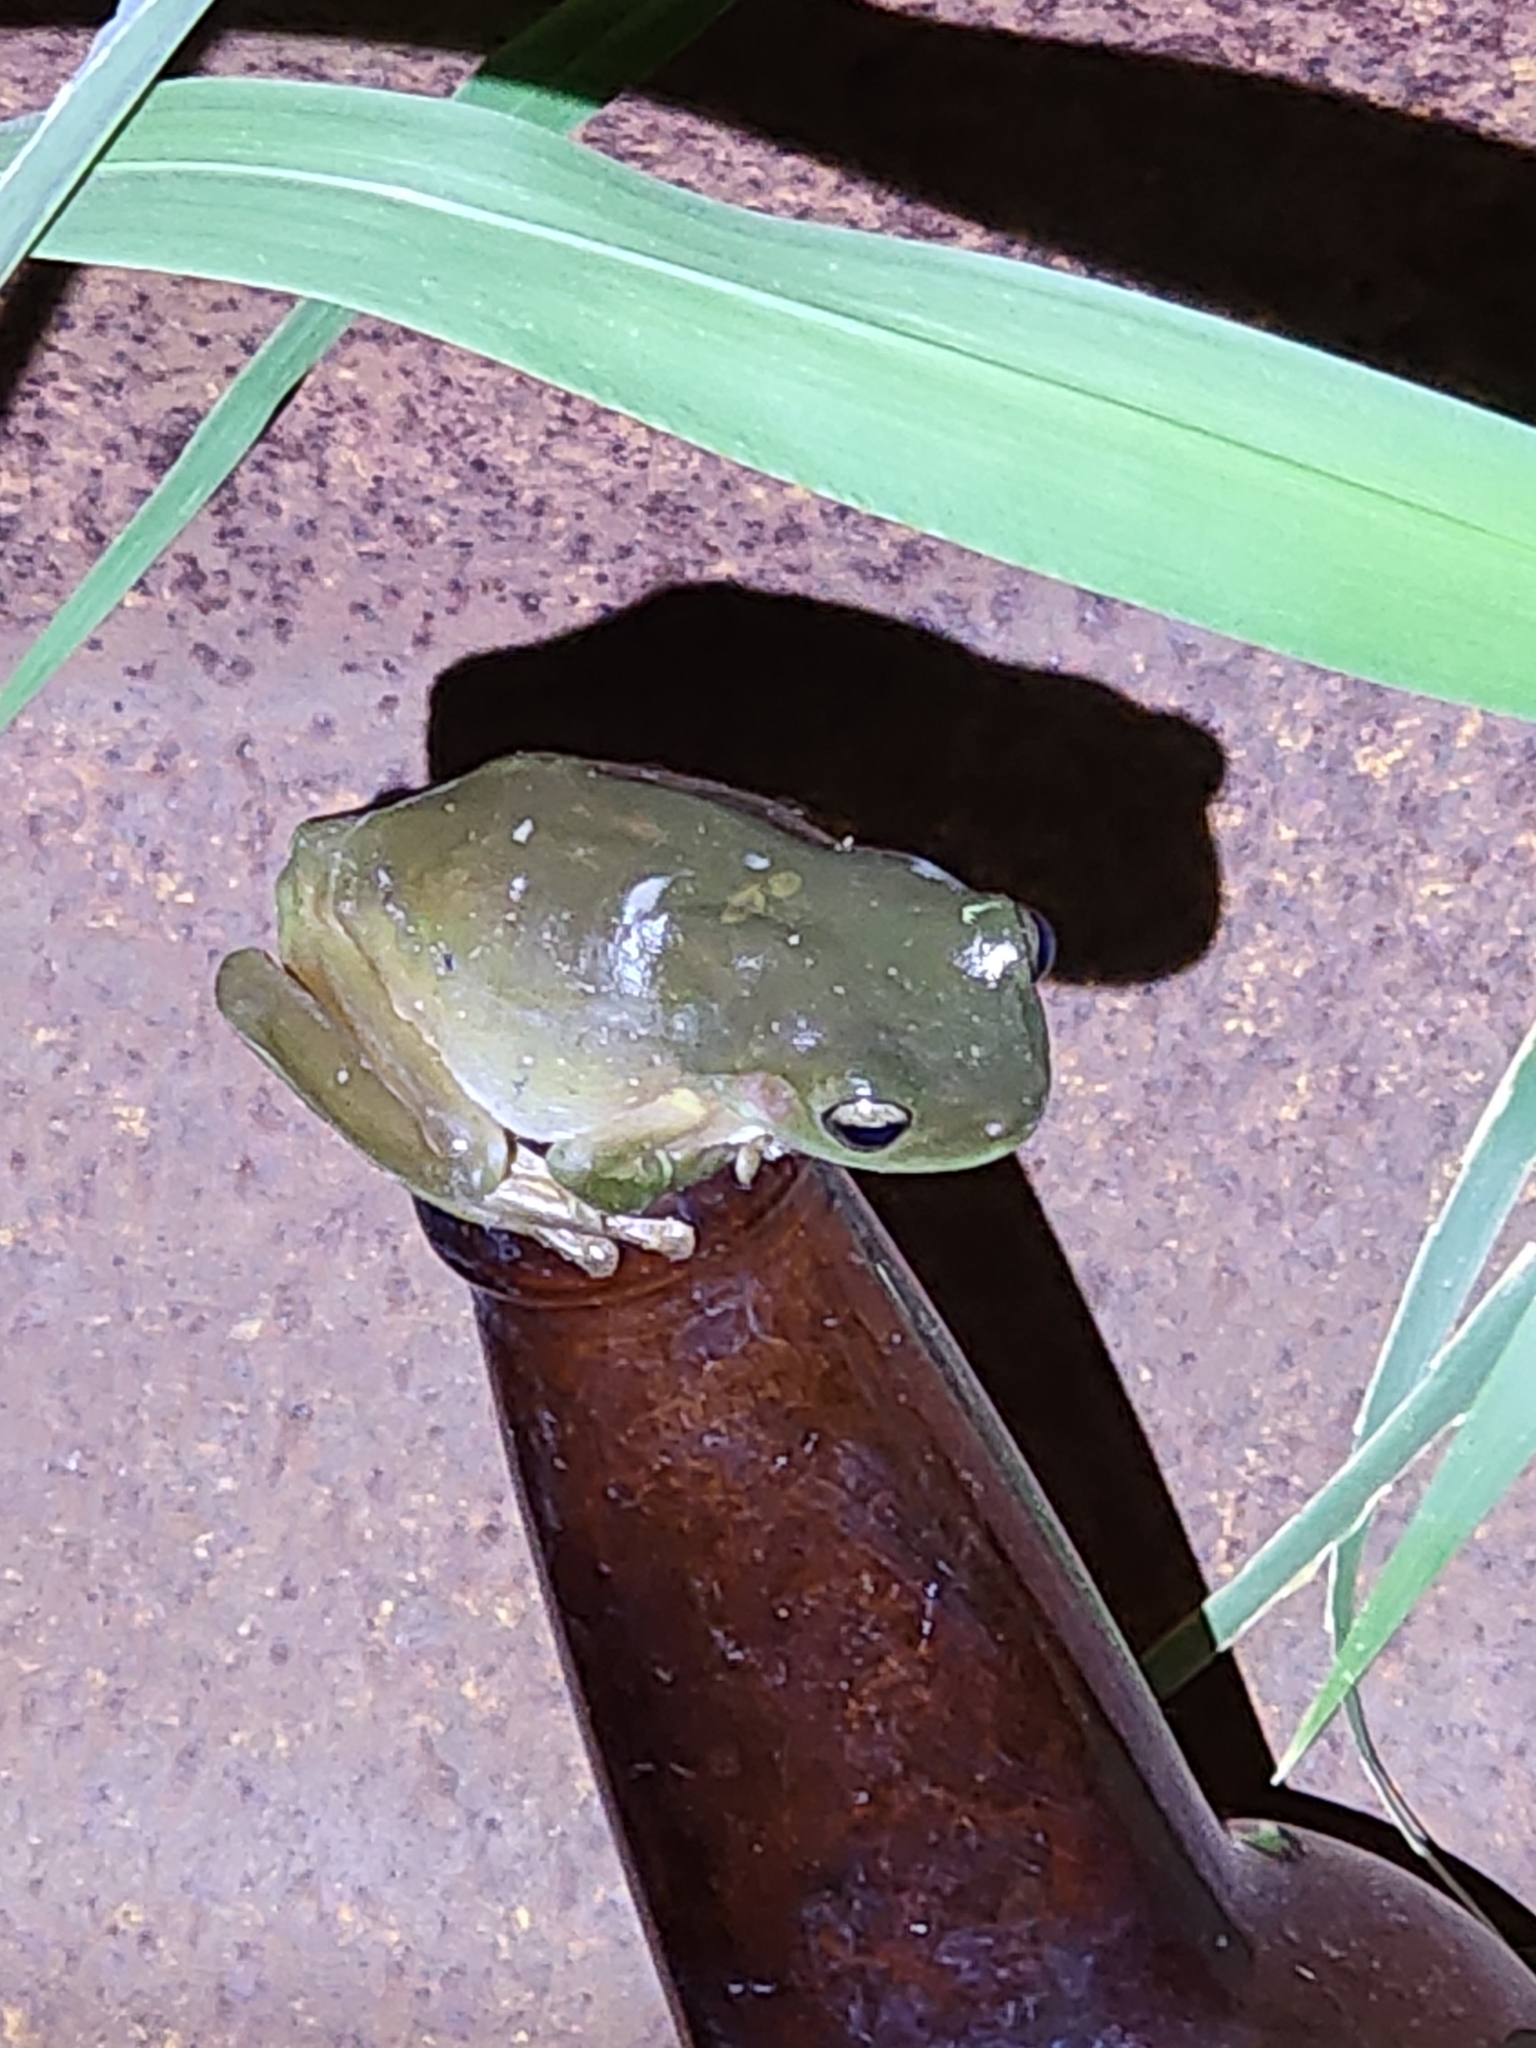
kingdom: Animalia
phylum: Chordata
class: Amphibia
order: Anura
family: Pelodryadidae
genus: Ranoidea
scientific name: Ranoidea caerulea
